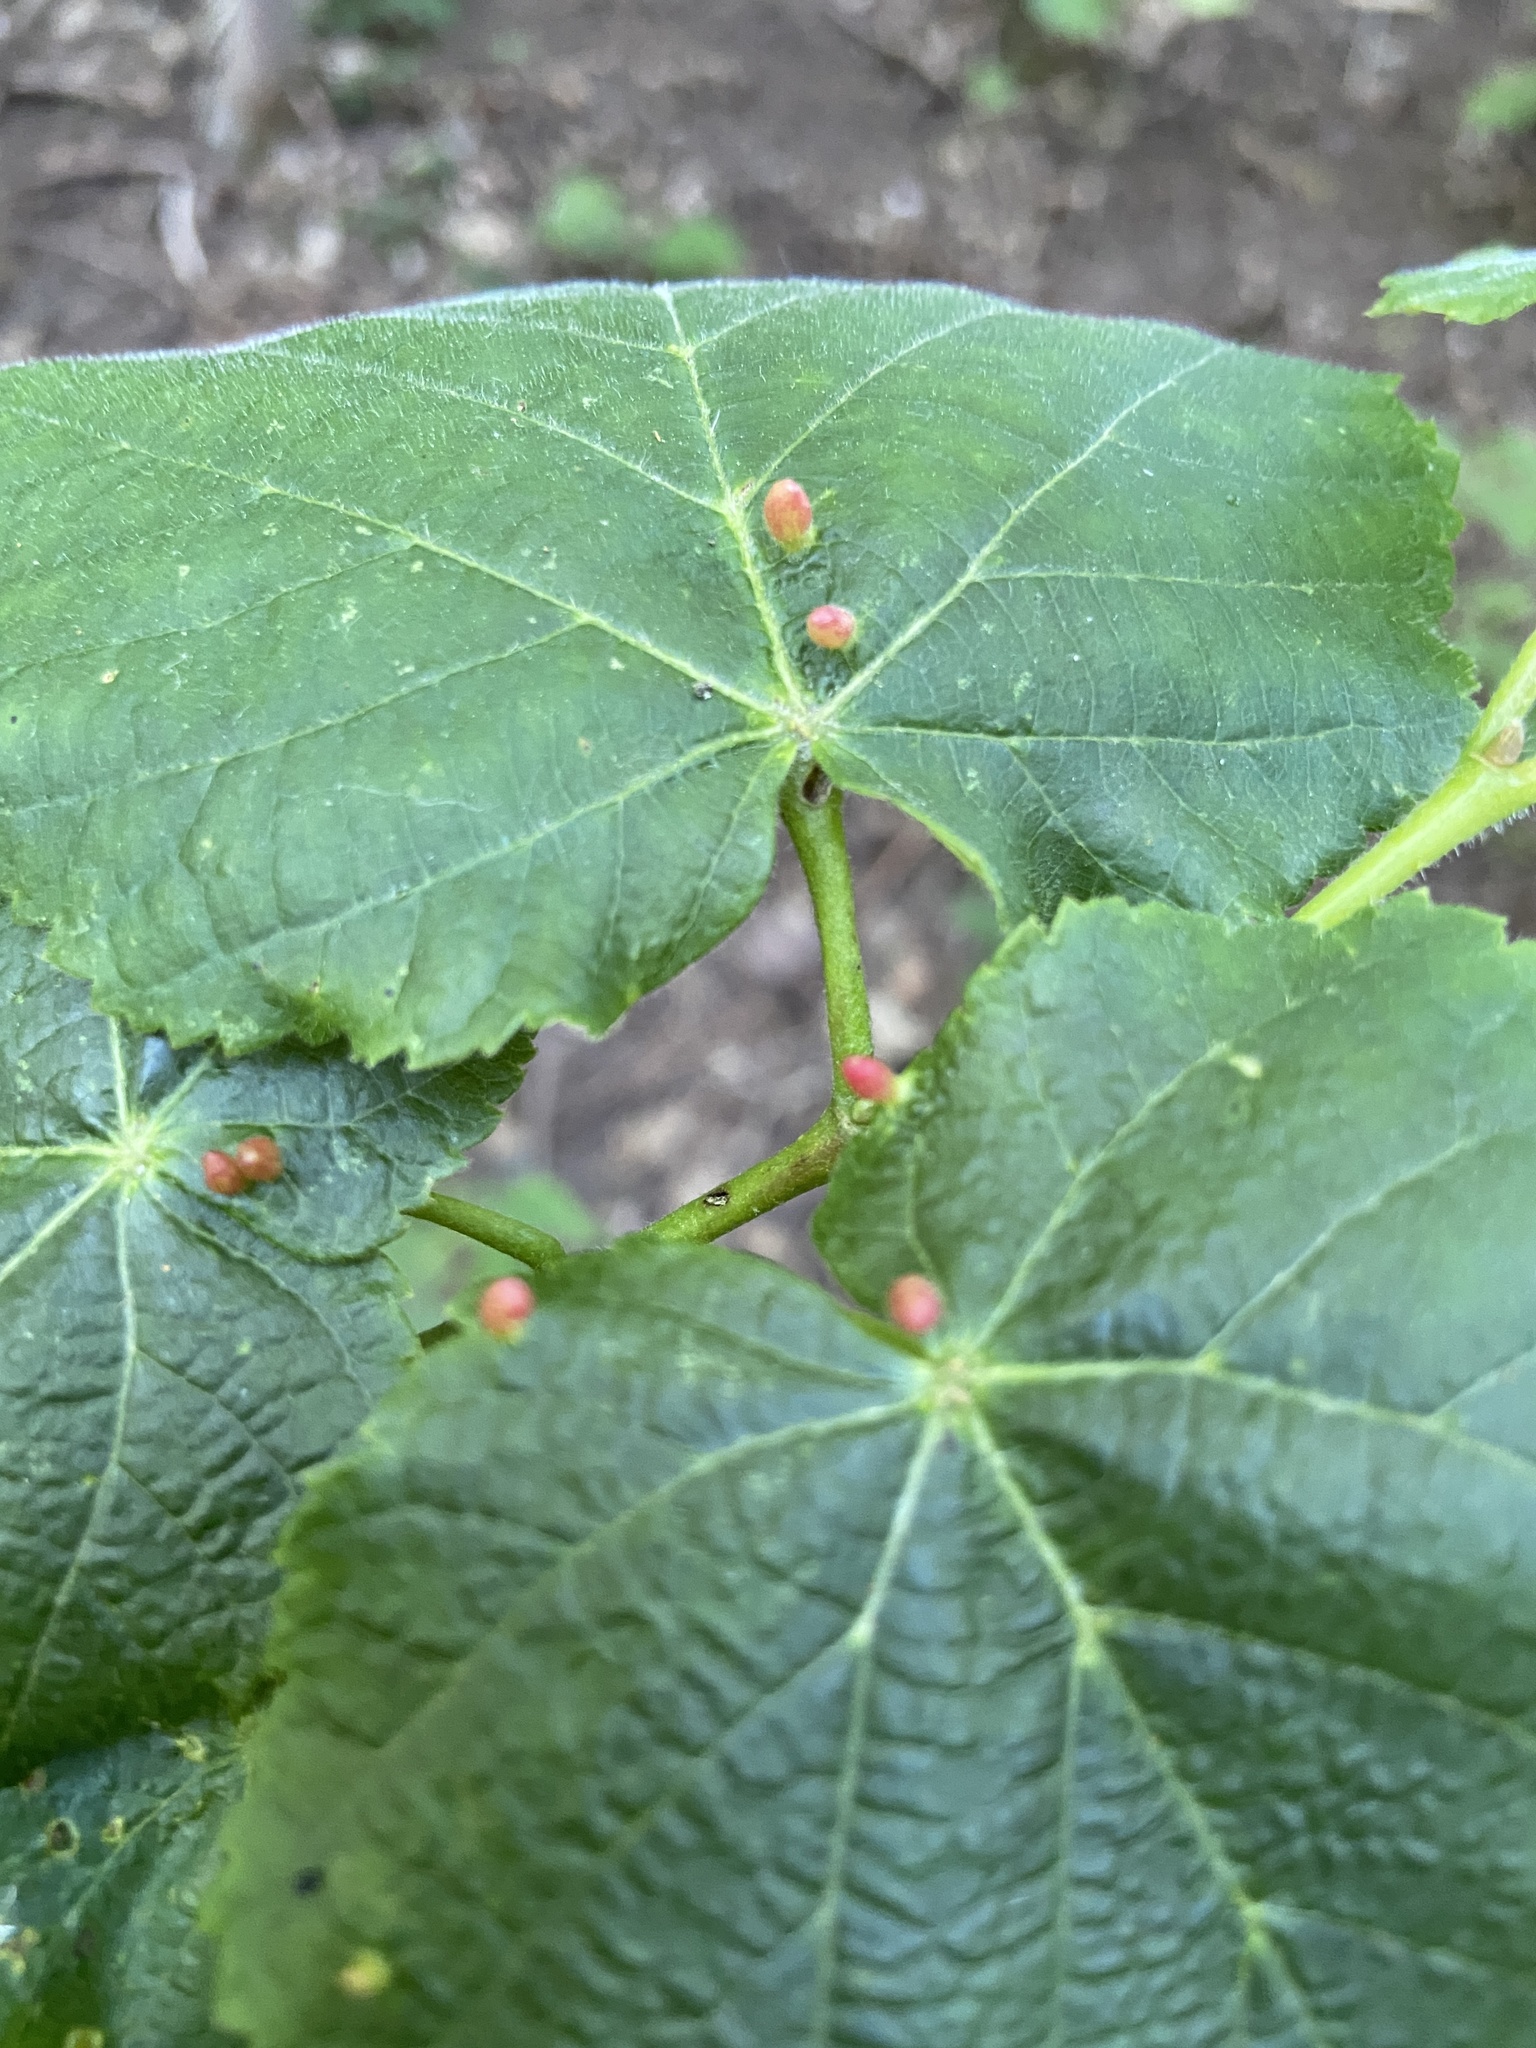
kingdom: Animalia
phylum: Arthropoda
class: Arachnida
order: Trombidiformes
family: Eriophyidae
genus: Eriophyes
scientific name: Eriophyes tiliae
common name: Red nail gall mite
